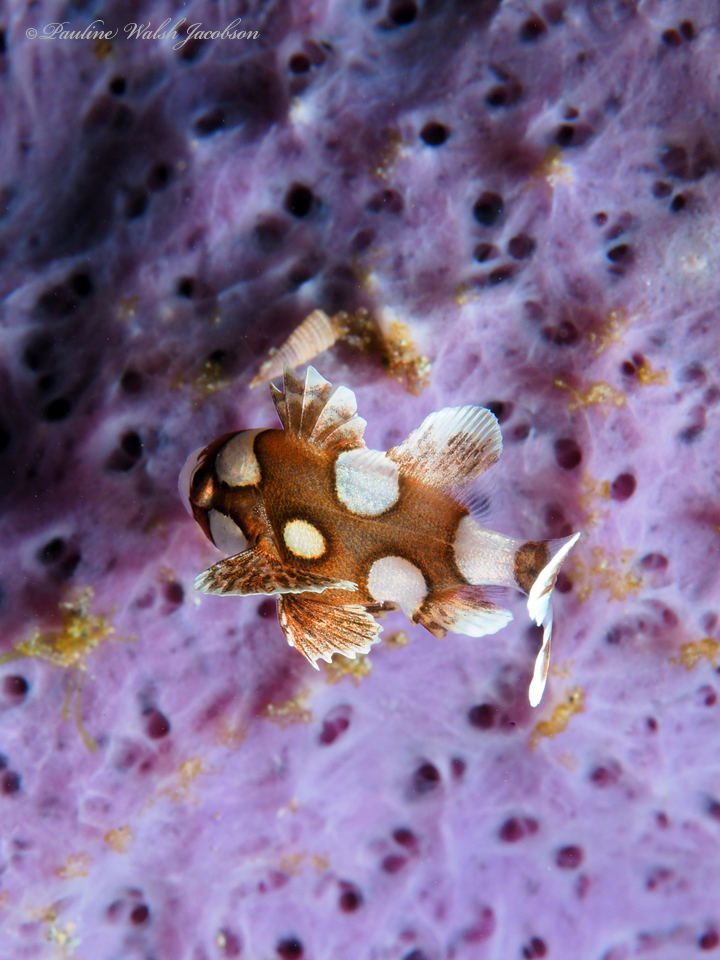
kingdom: Animalia
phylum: Chordata
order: Perciformes
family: Haemulidae
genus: Plectorhinchus
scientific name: Plectorhinchus chaetodonoides
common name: Harlequin sweetlips
